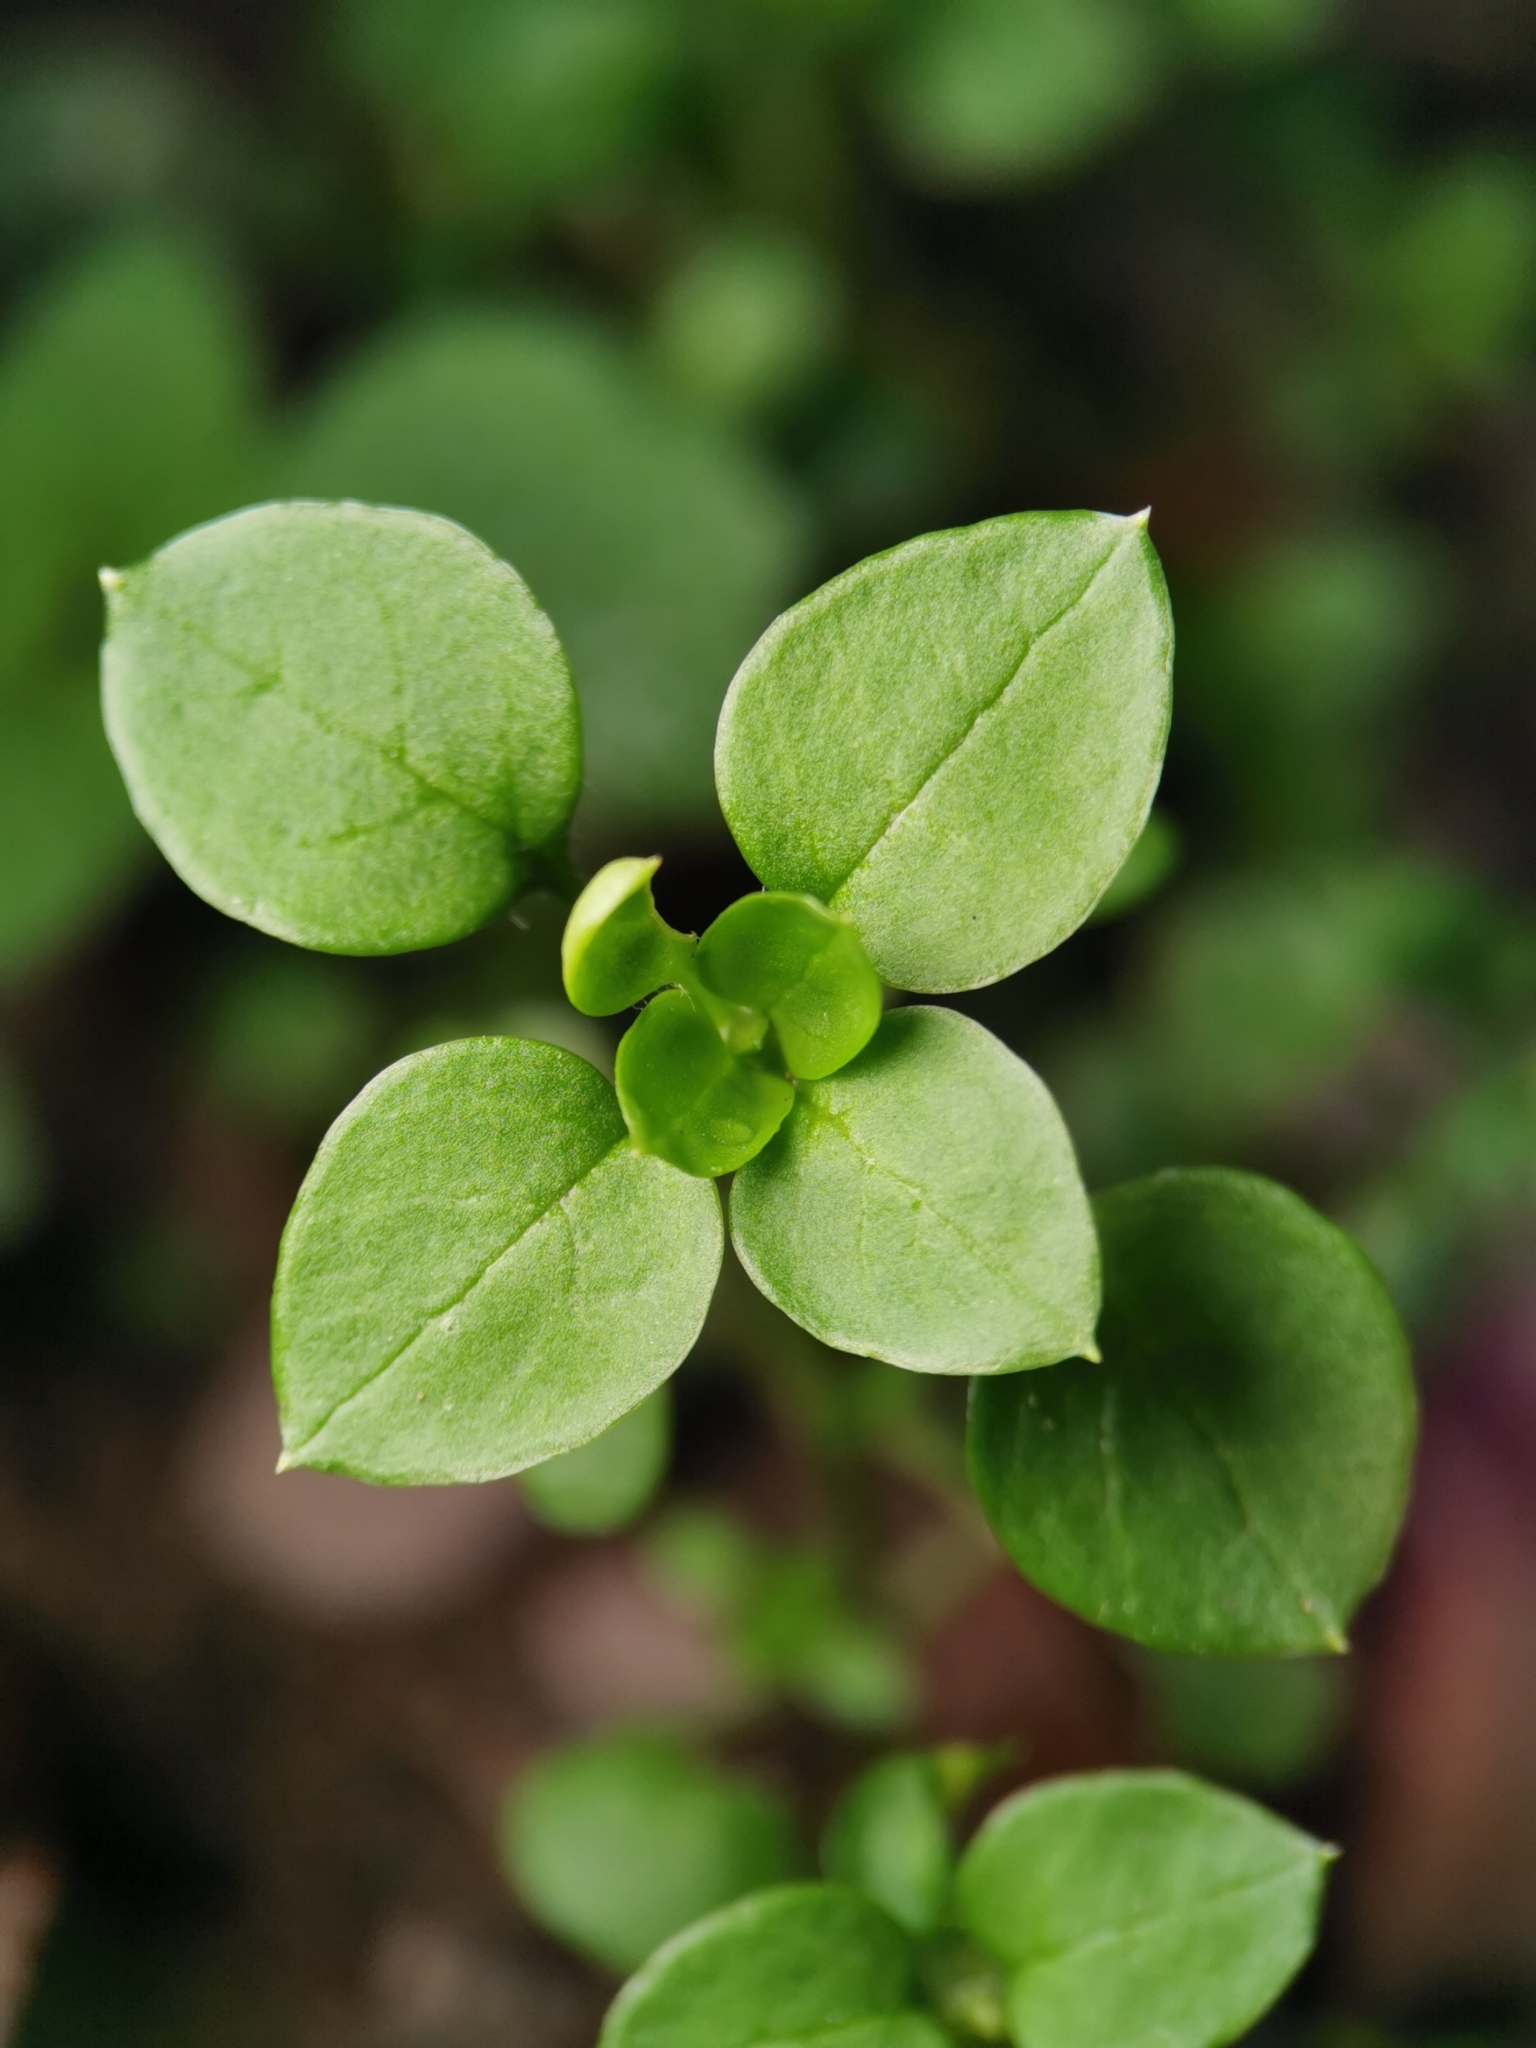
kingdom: Plantae
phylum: Tracheophyta
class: Magnoliopsida
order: Caryophyllales
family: Caryophyllaceae
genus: Stellaria
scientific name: Stellaria media
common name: Common chickweed
